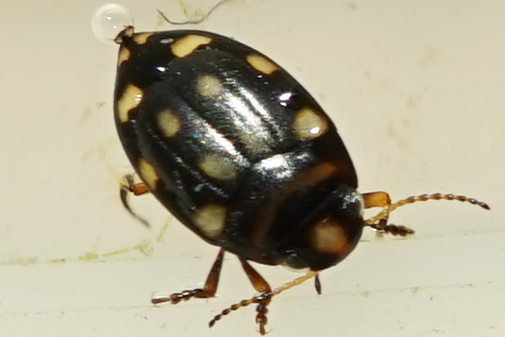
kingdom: Animalia
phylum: Arthropoda
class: Insecta
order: Coleoptera
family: Dytiscidae
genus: Neonectes
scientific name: Neonectes natrix
